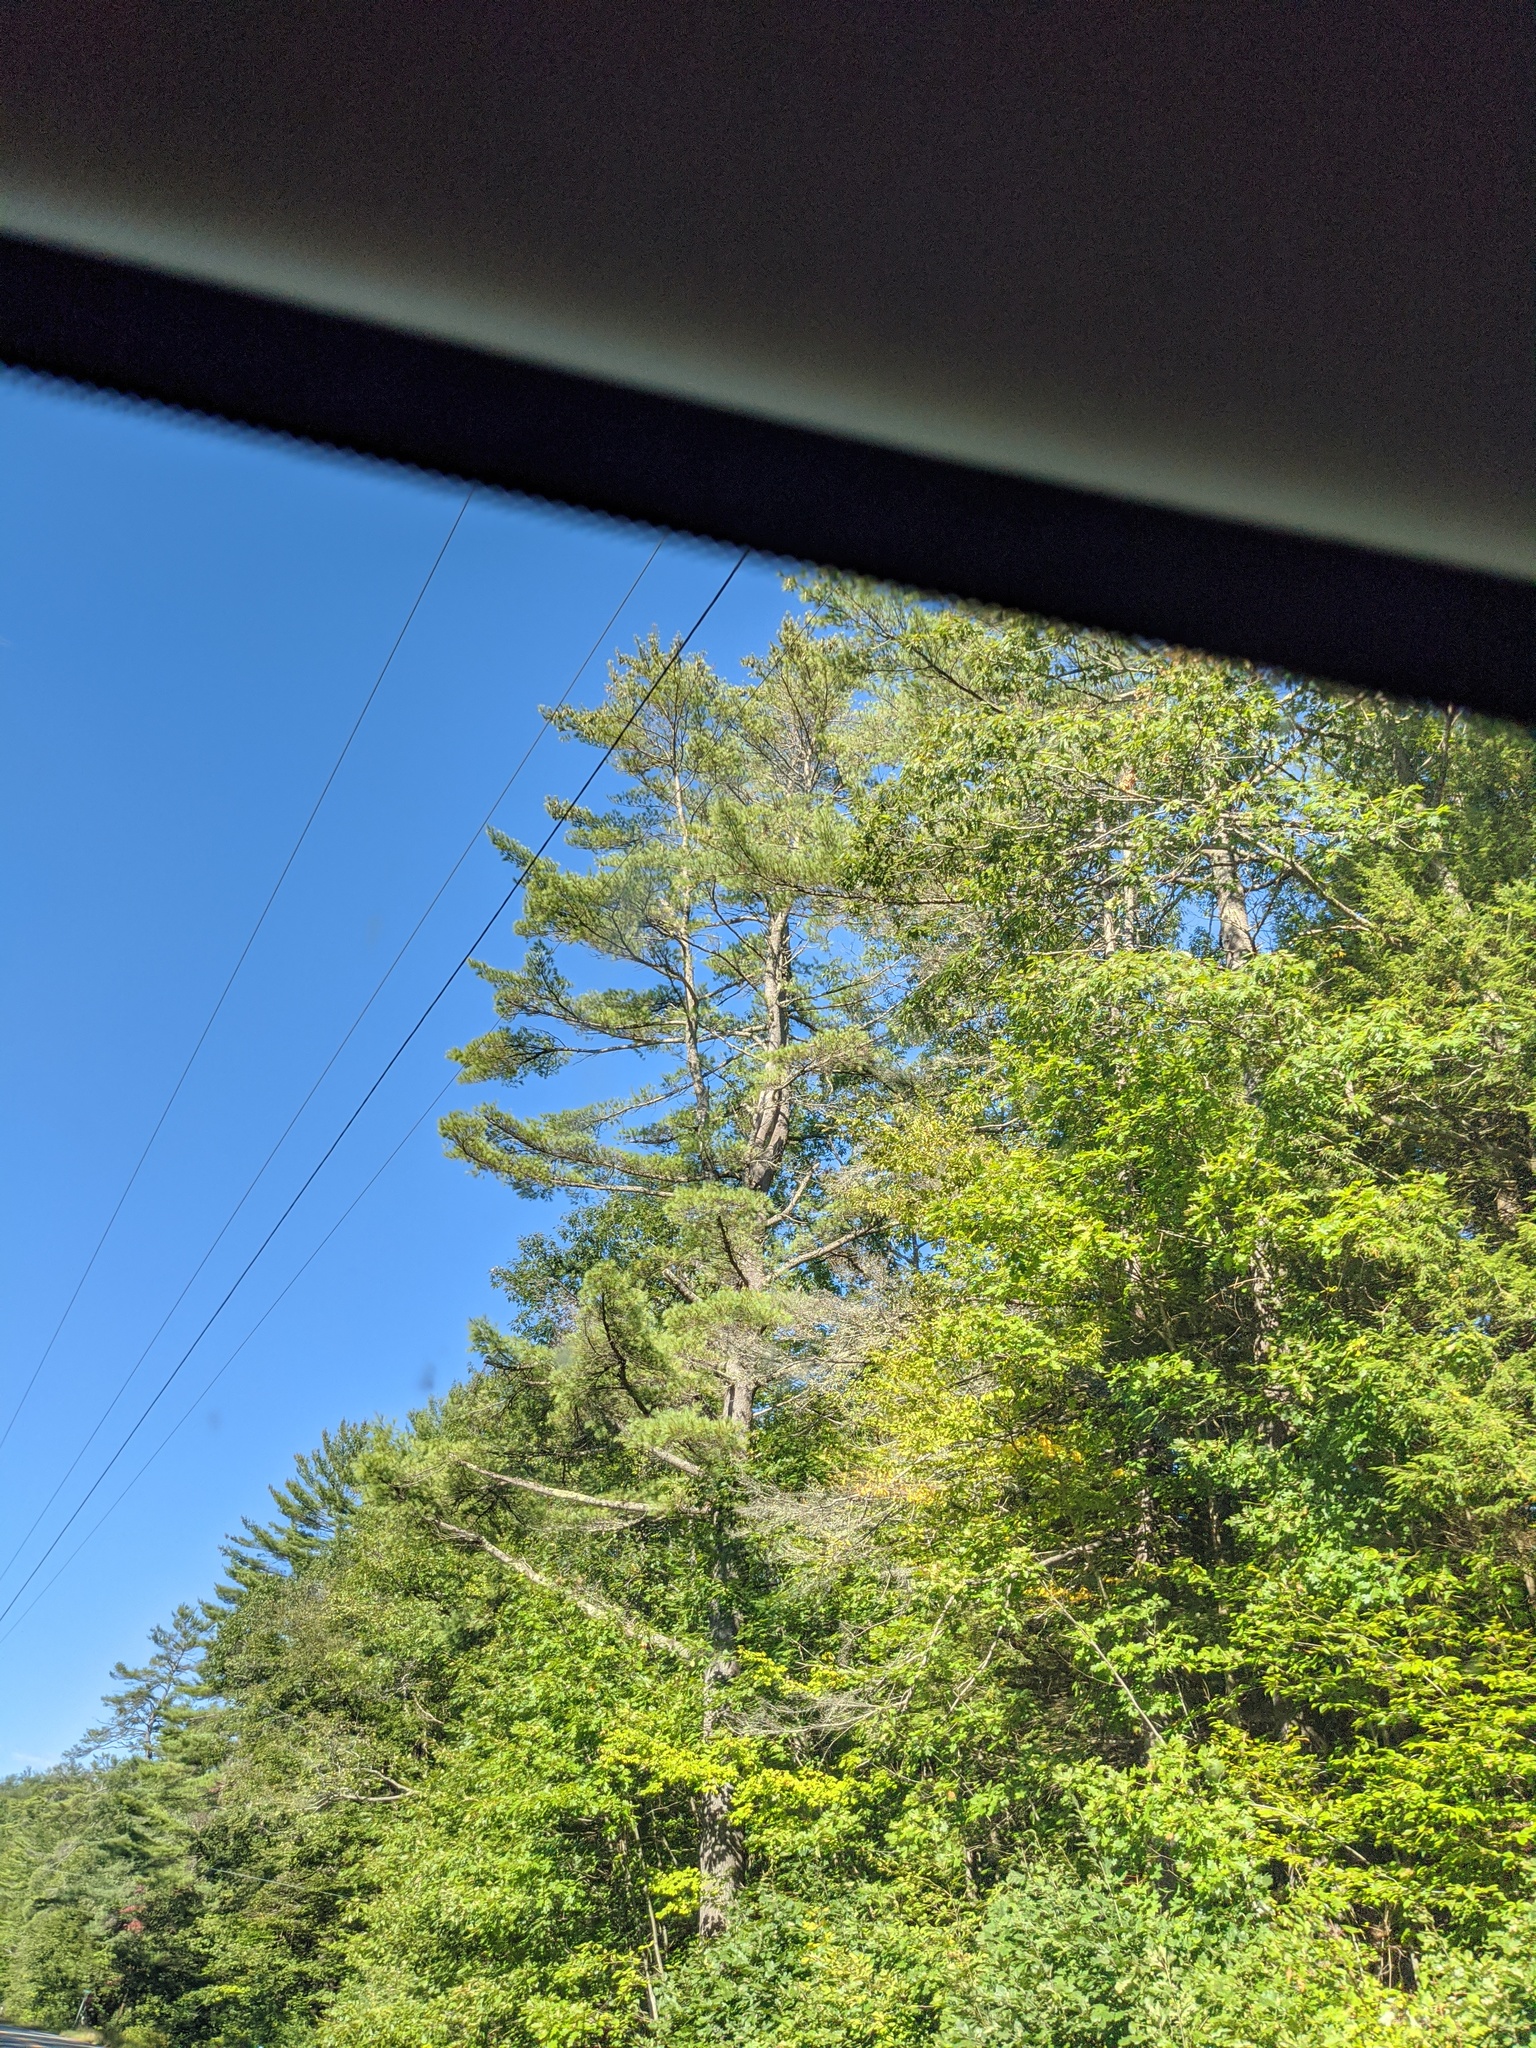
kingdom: Plantae
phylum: Tracheophyta
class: Pinopsida
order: Pinales
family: Pinaceae
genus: Pinus
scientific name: Pinus strobus
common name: Weymouth pine
